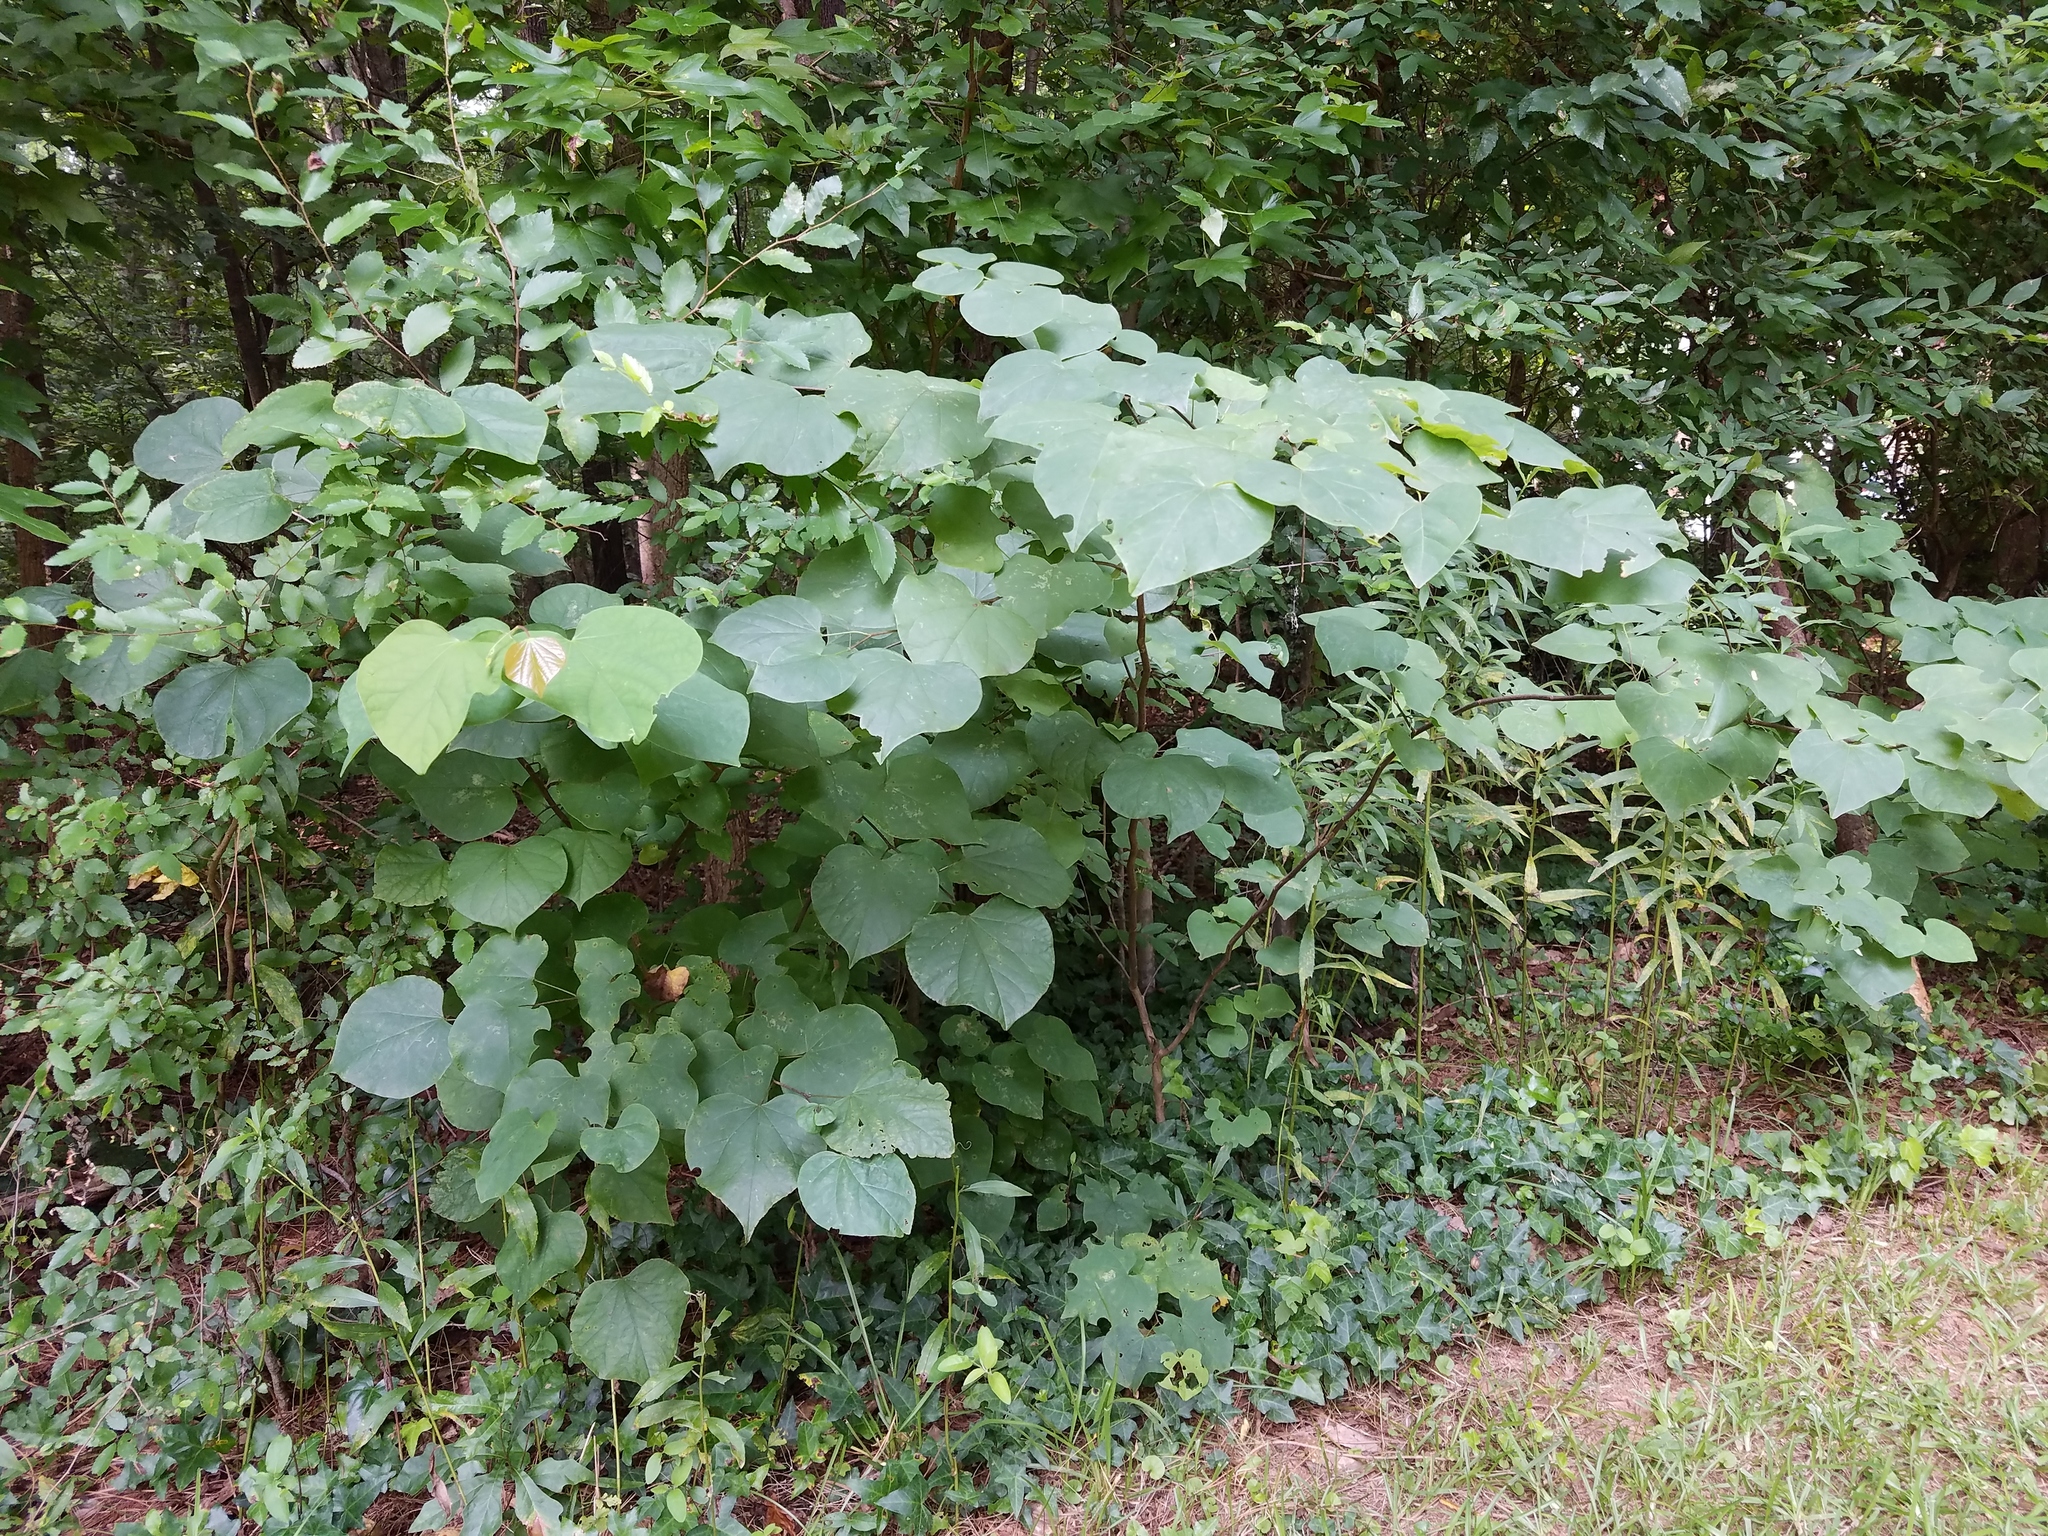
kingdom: Plantae
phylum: Tracheophyta
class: Magnoliopsida
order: Fabales
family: Fabaceae
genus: Cercis
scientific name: Cercis canadensis
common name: Eastern redbud
